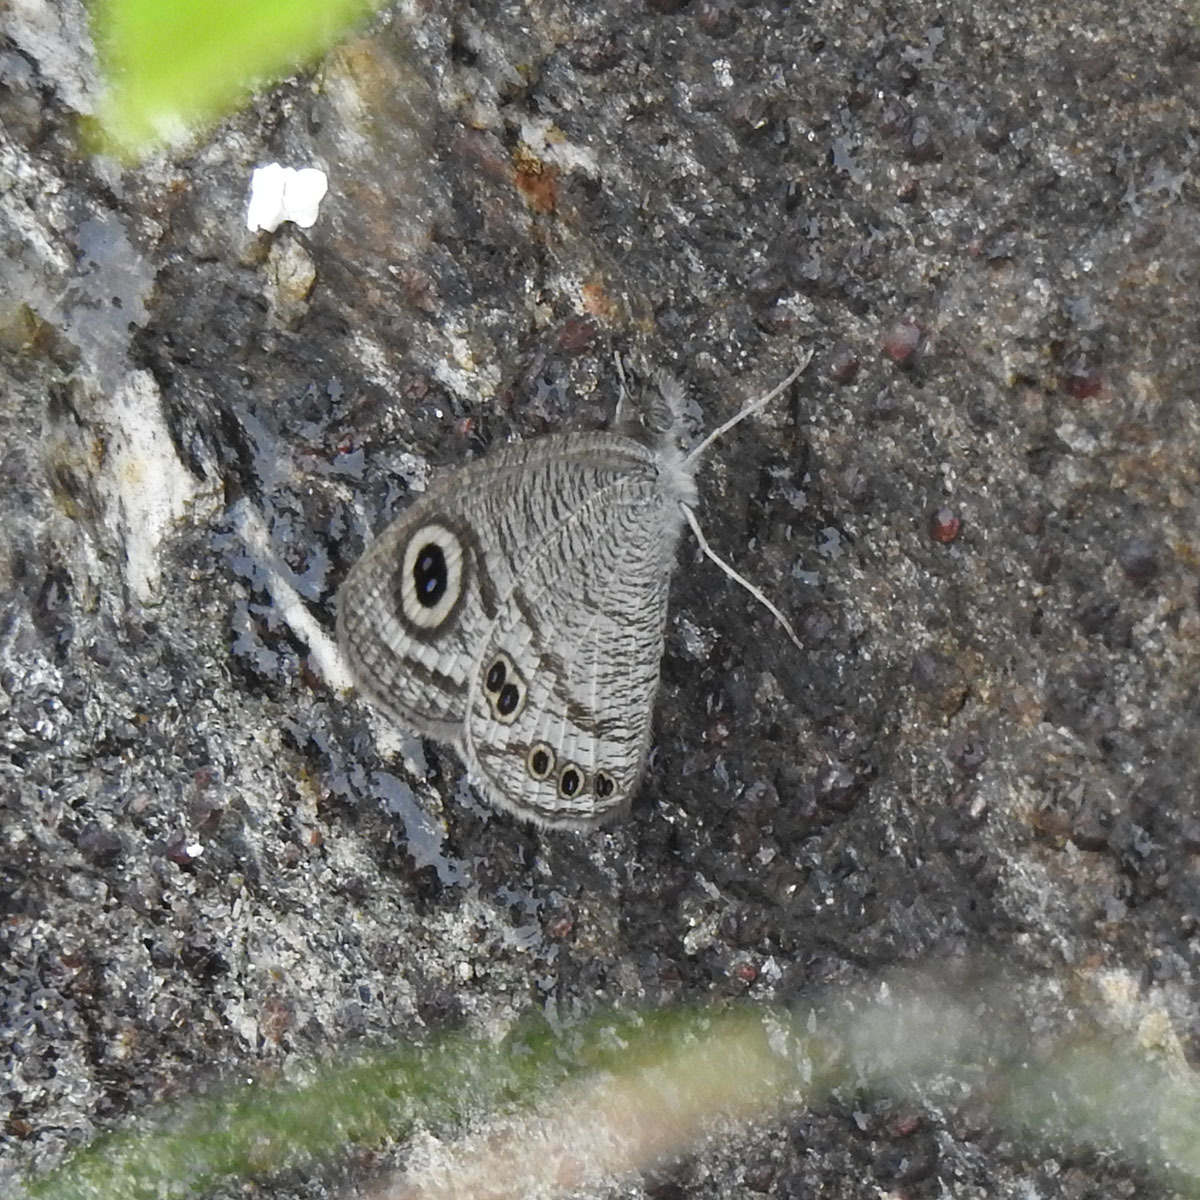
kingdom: Animalia
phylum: Arthropoda
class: Insecta
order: Lepidoptera
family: Nymphalidae
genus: Ypthima
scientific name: Ypthima baldus
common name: Common five-ring
